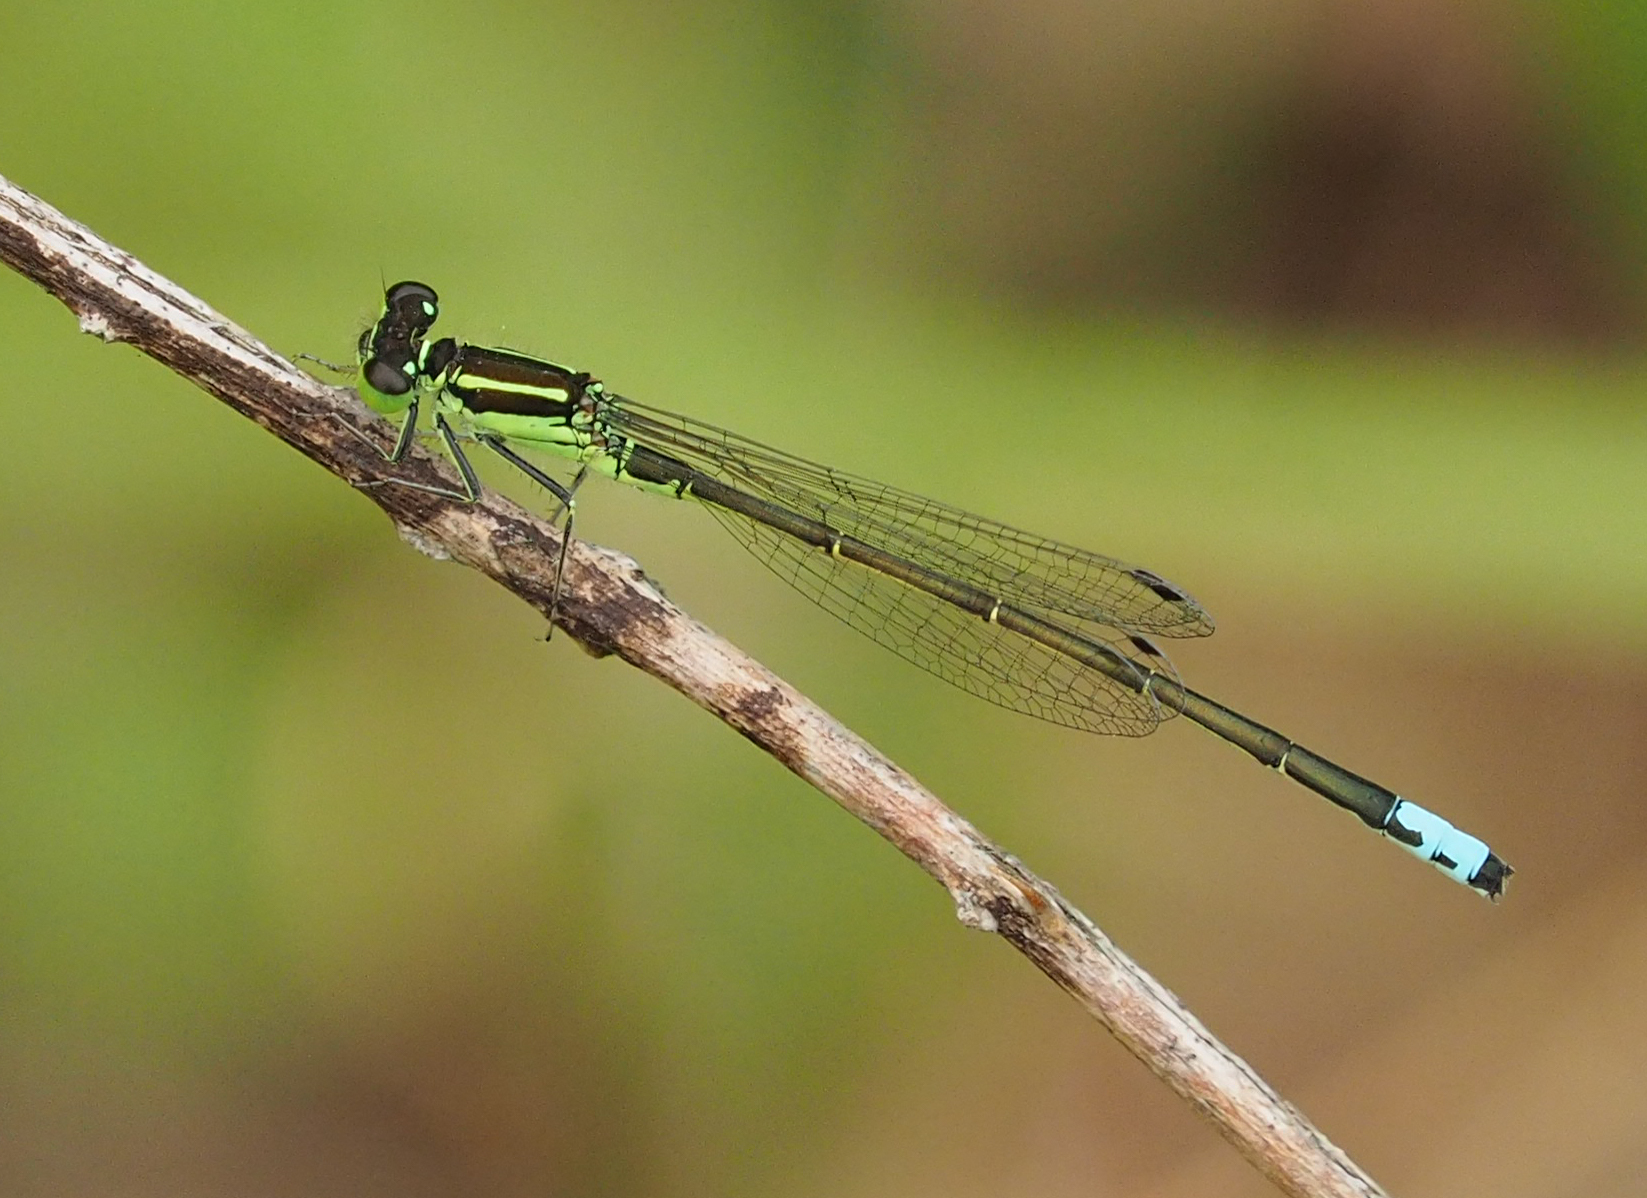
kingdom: Animalia
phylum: Arthropoda
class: Insecta
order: Odonata
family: Coenagrionidae
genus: Ischnura
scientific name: Ischnura verticalis
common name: Eastern forktail
